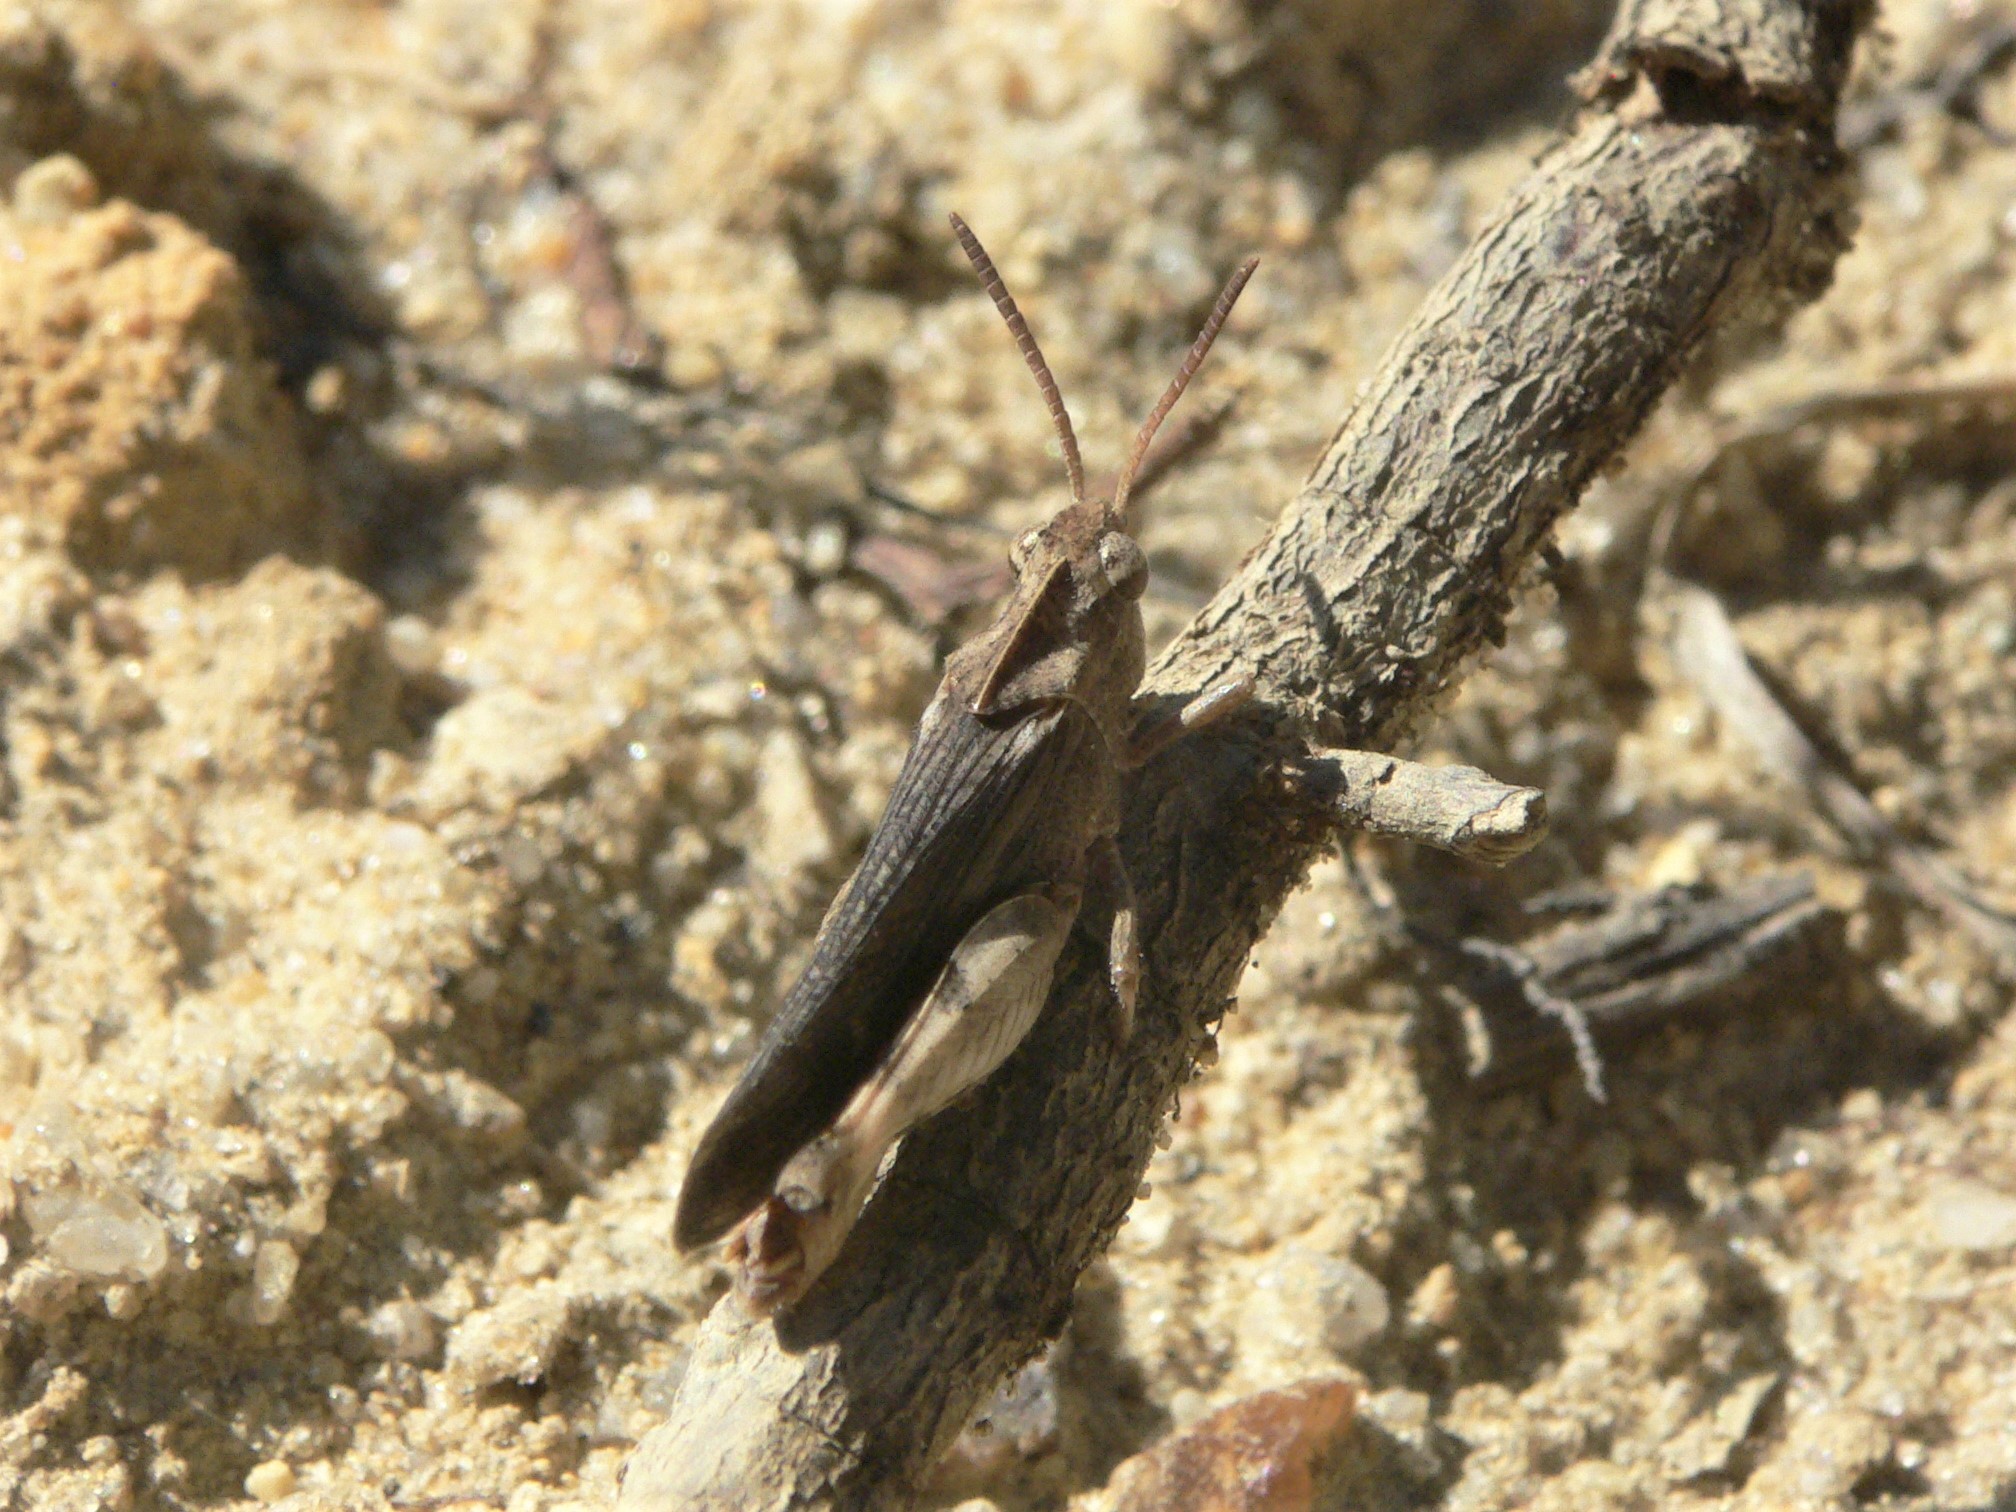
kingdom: Animalia
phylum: Arthropoda
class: Insecta
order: Orthoptera
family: Acrididae
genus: Chortophaga
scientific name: Chortophaga viridifasciata
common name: Green-striped grasshopper
